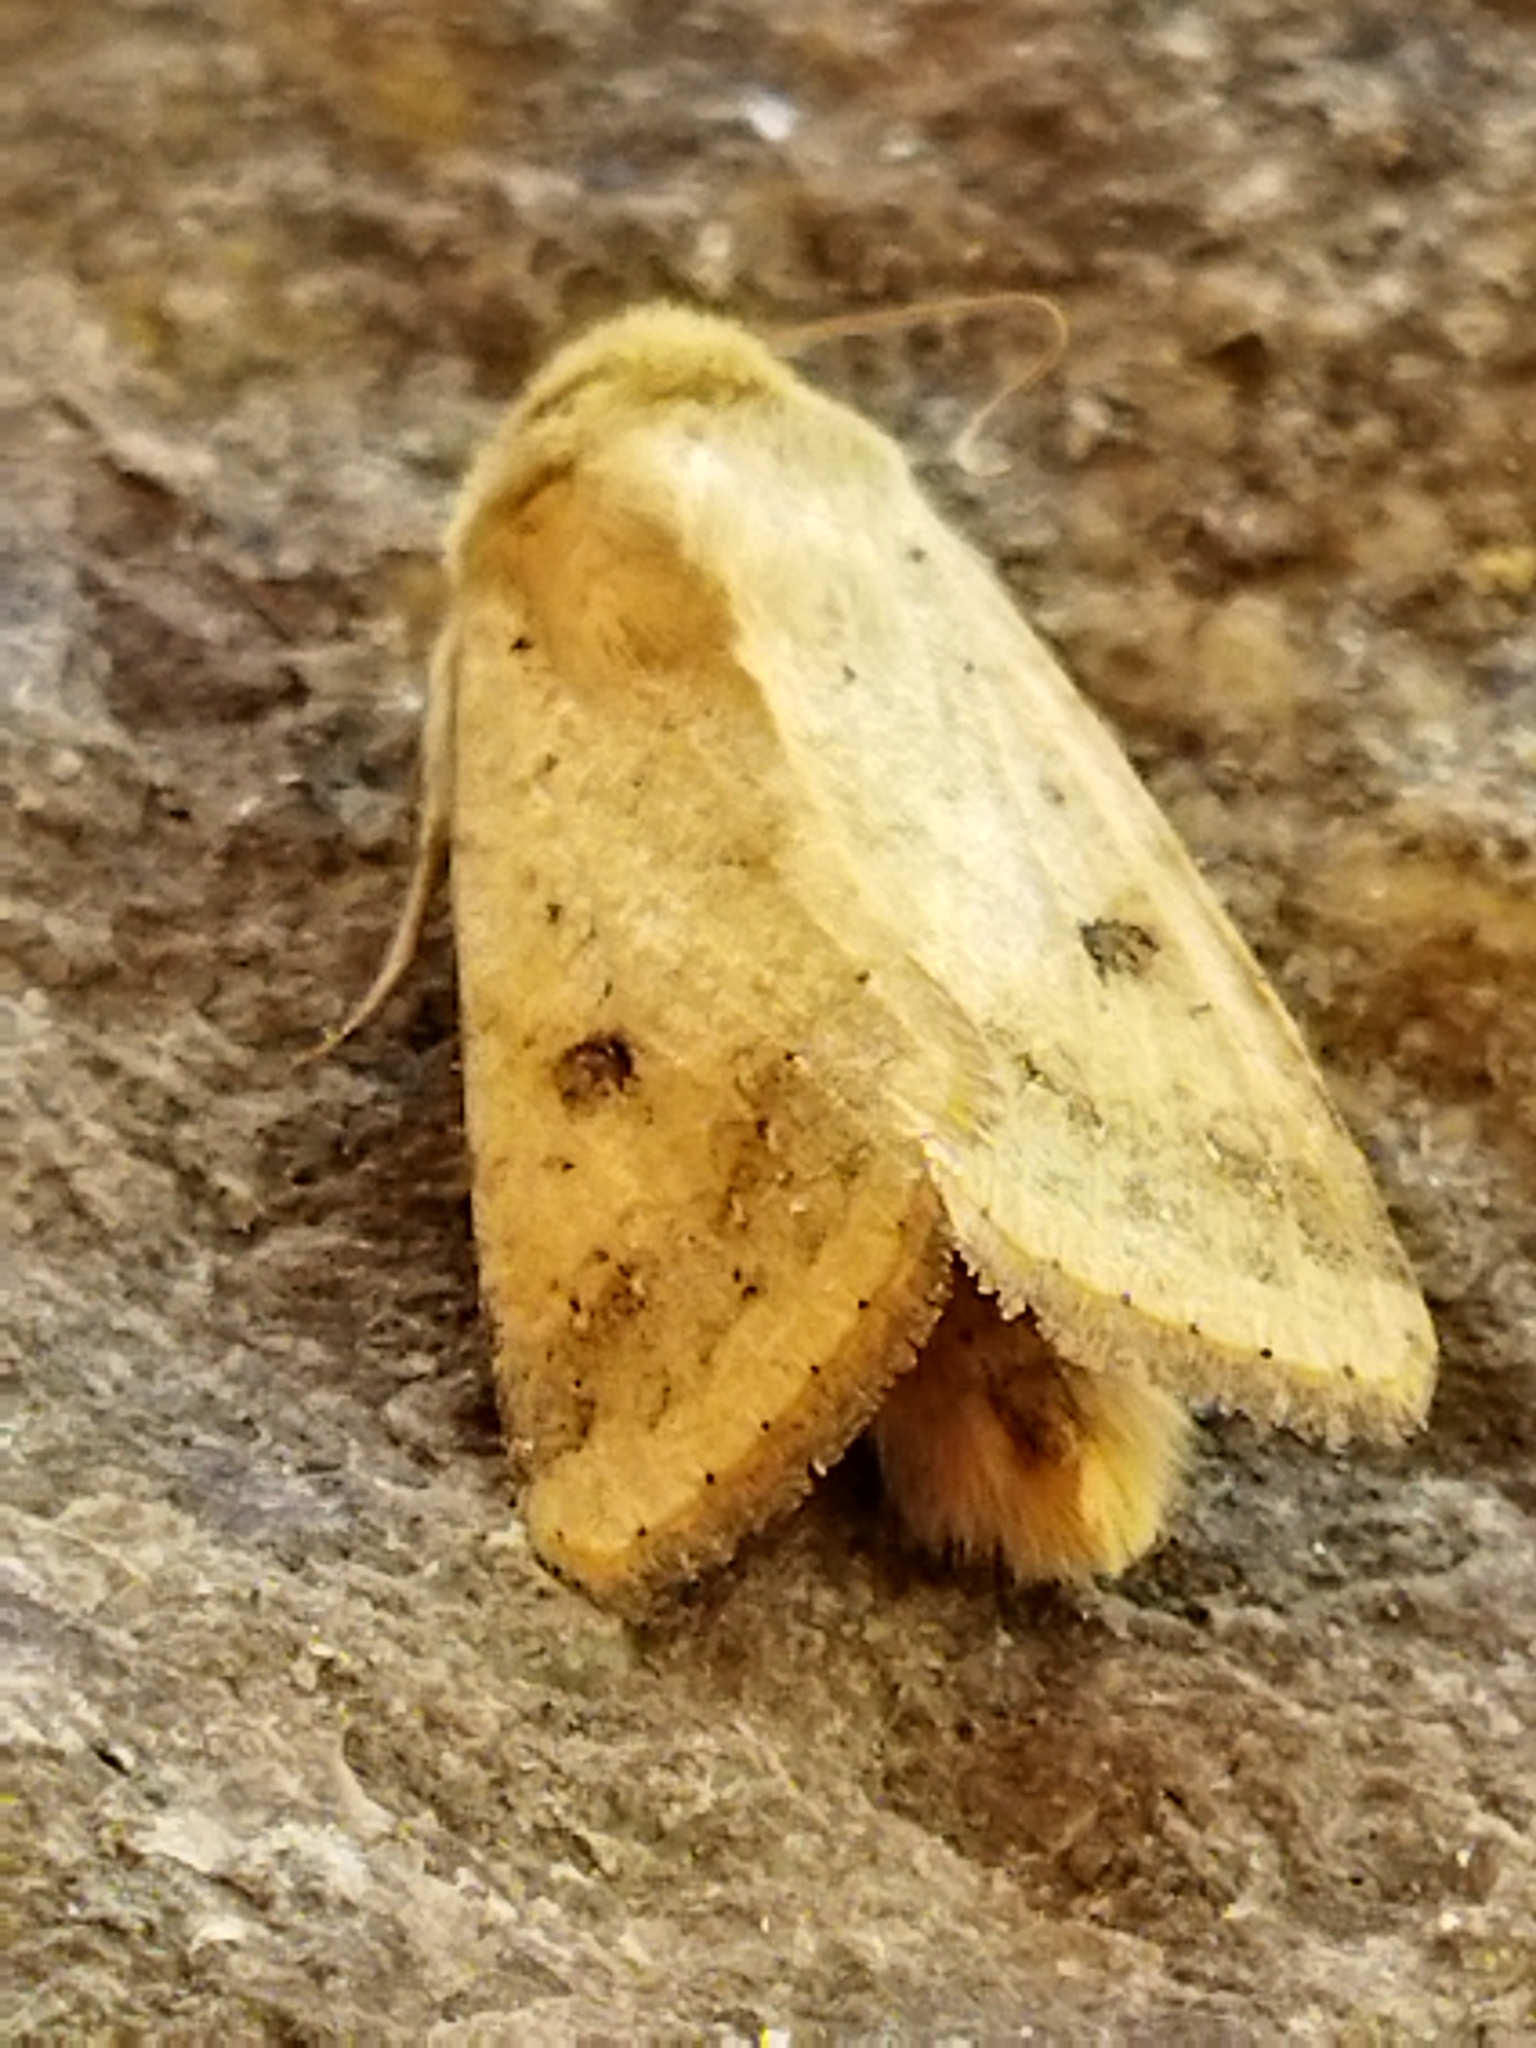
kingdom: Animalia
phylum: Arthropoda
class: Insecta
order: Lepidoptera
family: Noctuidae
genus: Helicoverpa
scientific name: Helicoverpa armigera
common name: Cotton bollworm
